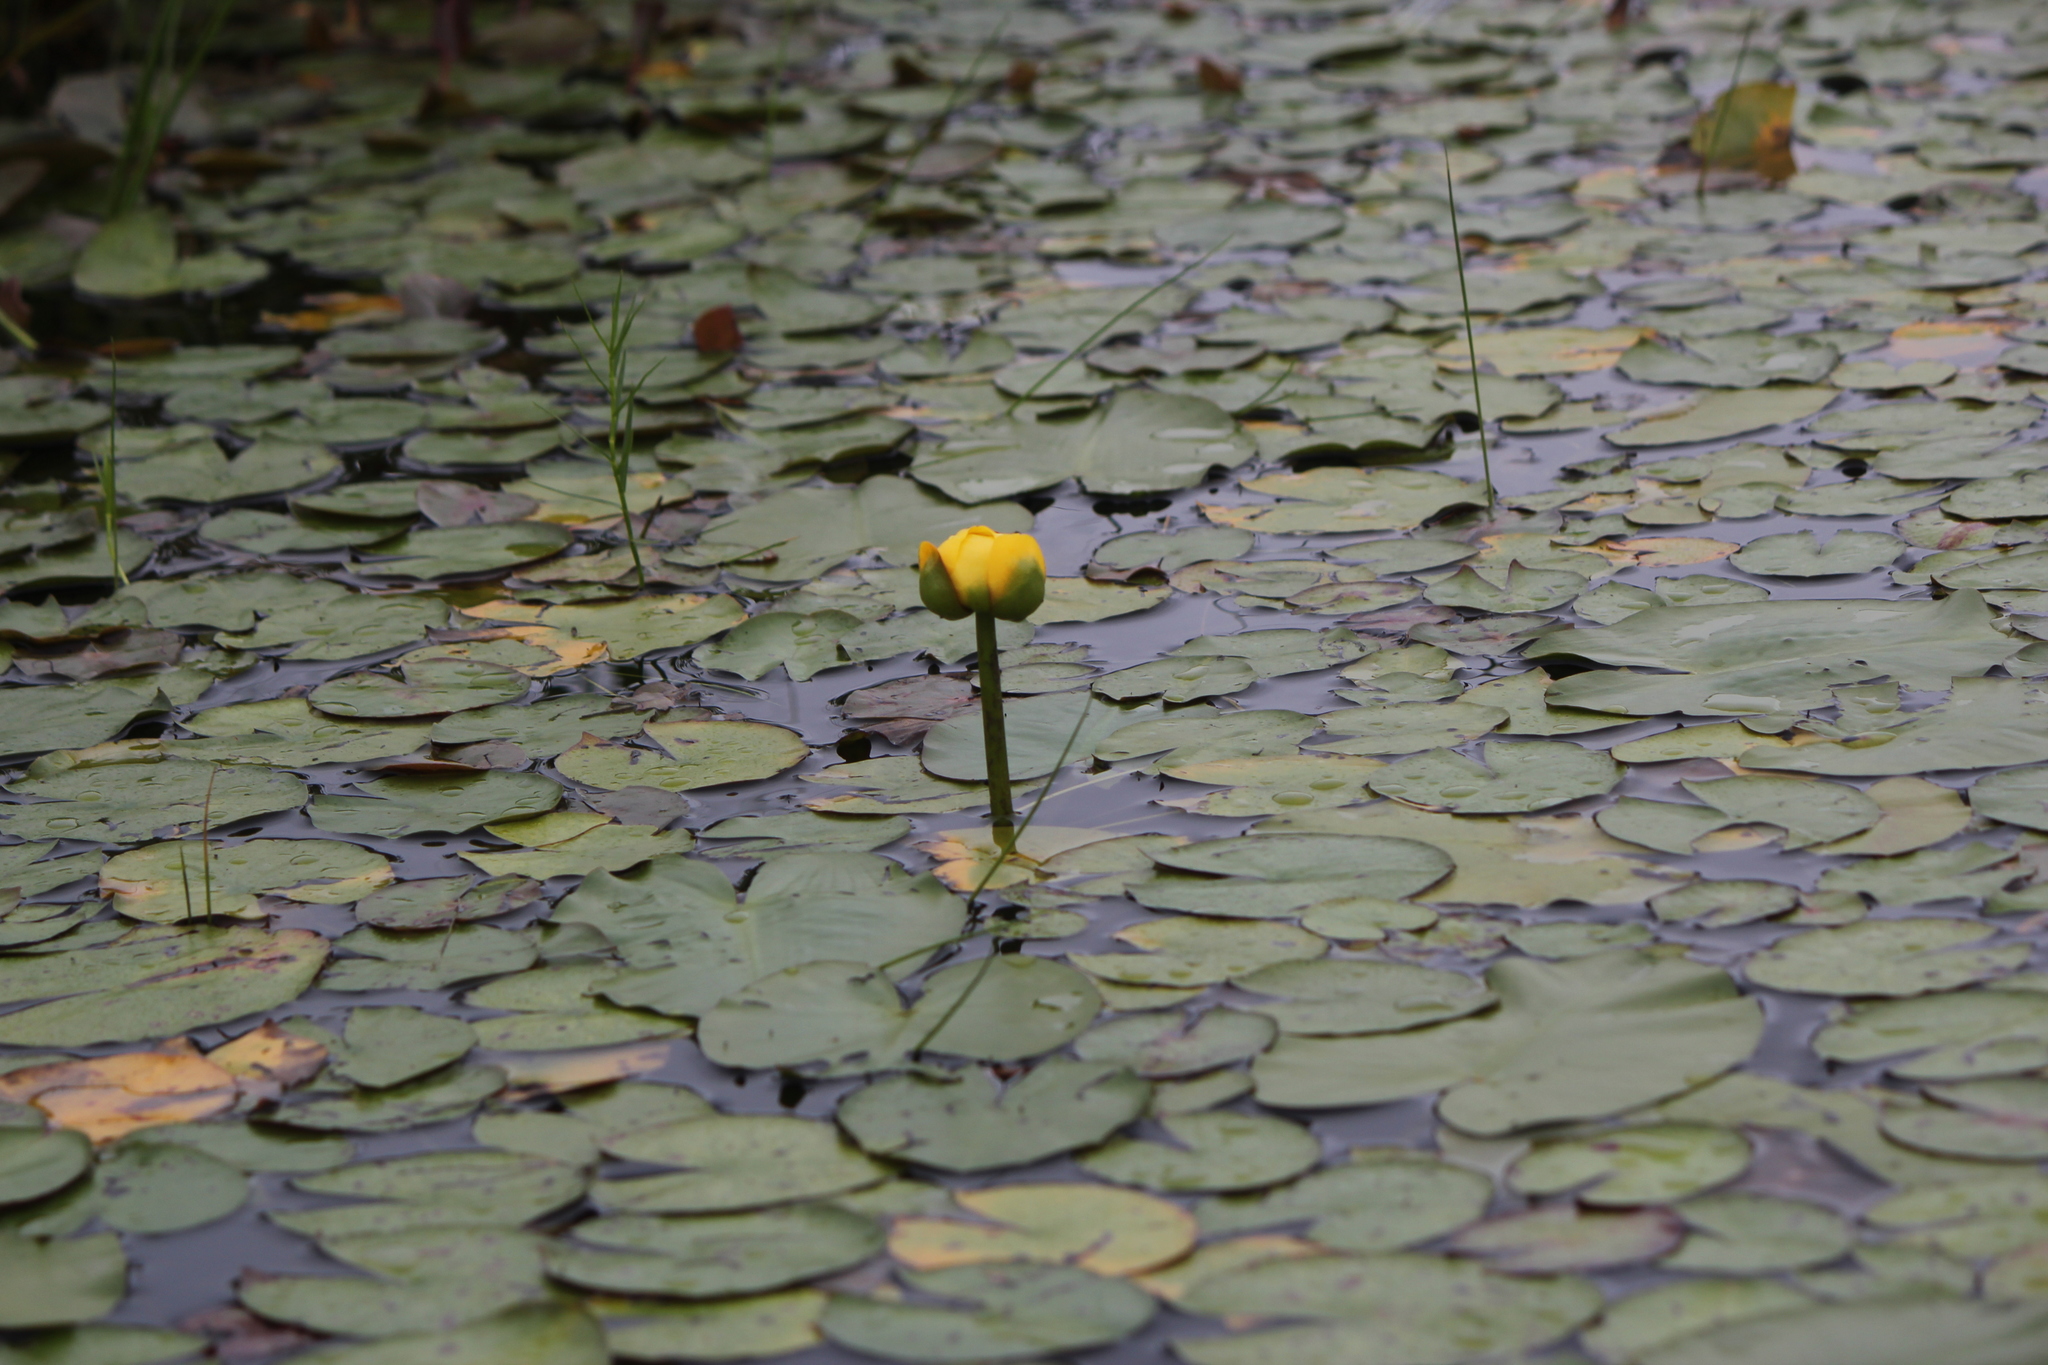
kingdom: Plantae
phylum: Tracheophyta
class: Magnoliopsida
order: Nymphaeales
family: Nymphaeaceae
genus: Nuphar
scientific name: Nuphar variegata
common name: Beaver-root
